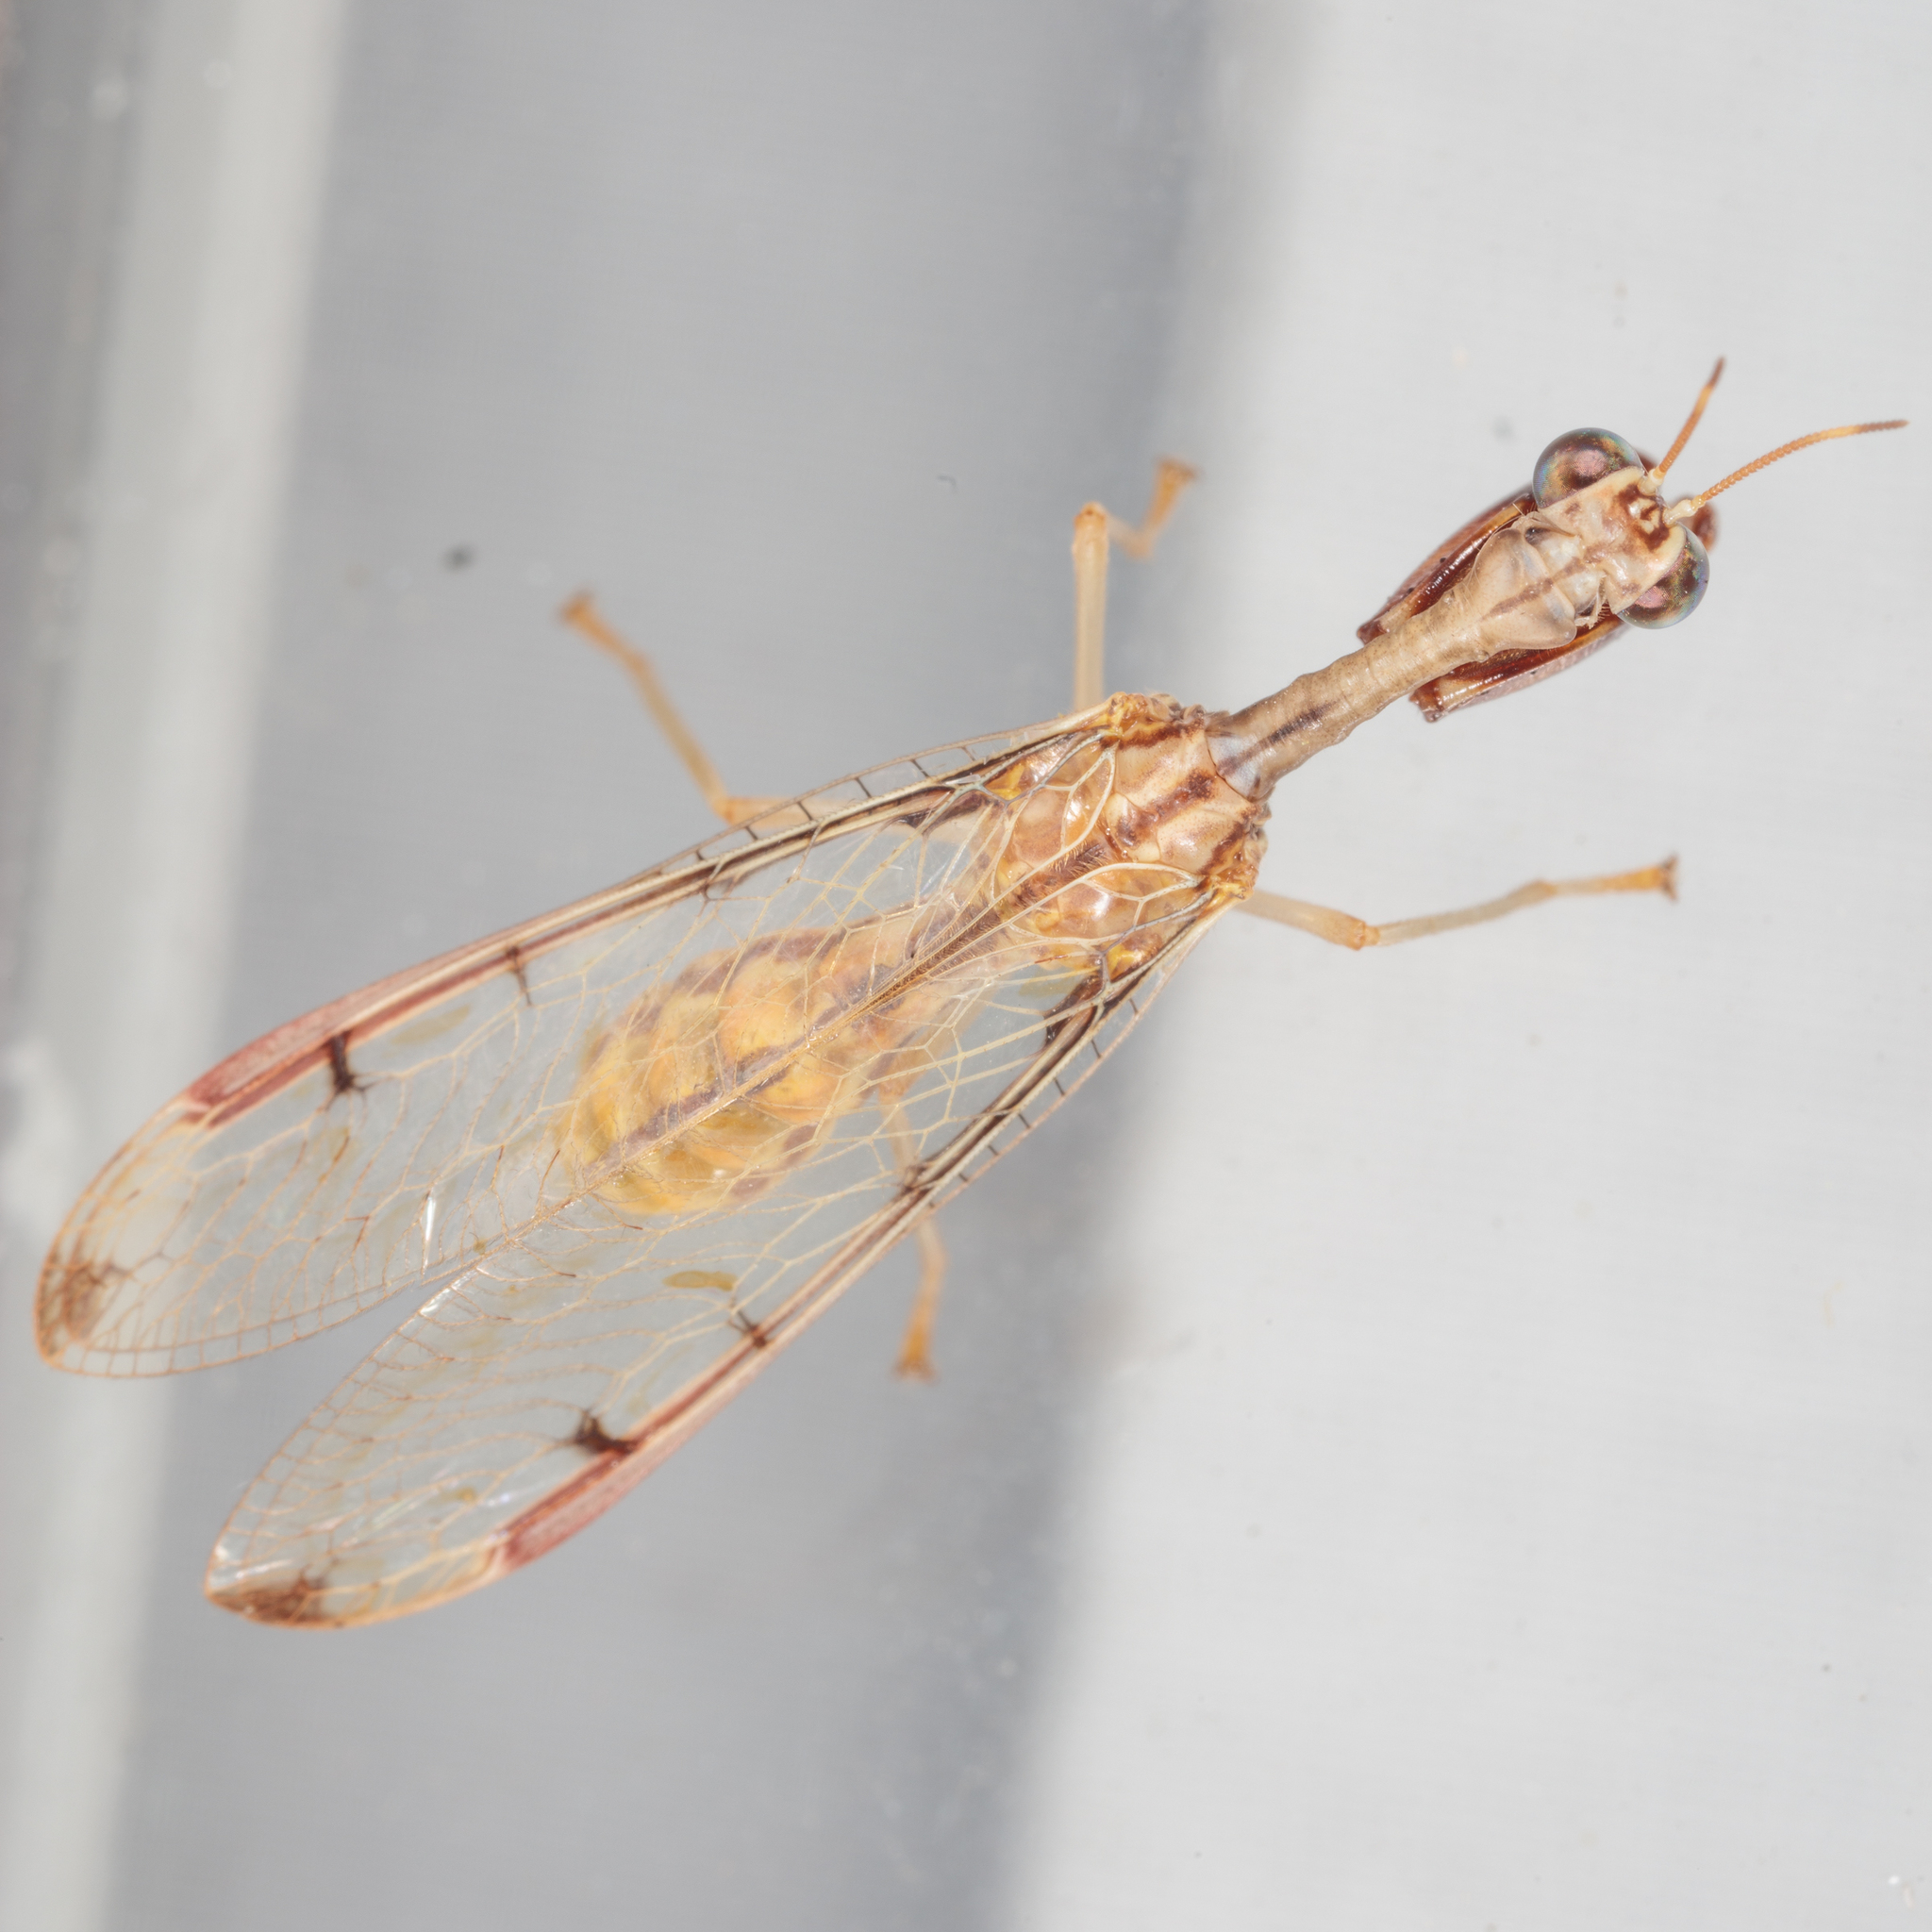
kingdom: Animalia
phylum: Arthropoda
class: Insecta
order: Neuroptera
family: Mantispidae
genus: Dicromantispa
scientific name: Dicromantispa interrupta
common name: Four-spotted mantidfly
